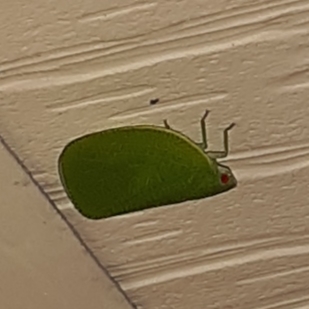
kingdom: Animalia
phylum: Arthropoda
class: Insecta
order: Hemiptera
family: Acanaloniidae
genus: Acanalonia
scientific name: Acanalonia conica
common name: Green cone-headed planthopper
